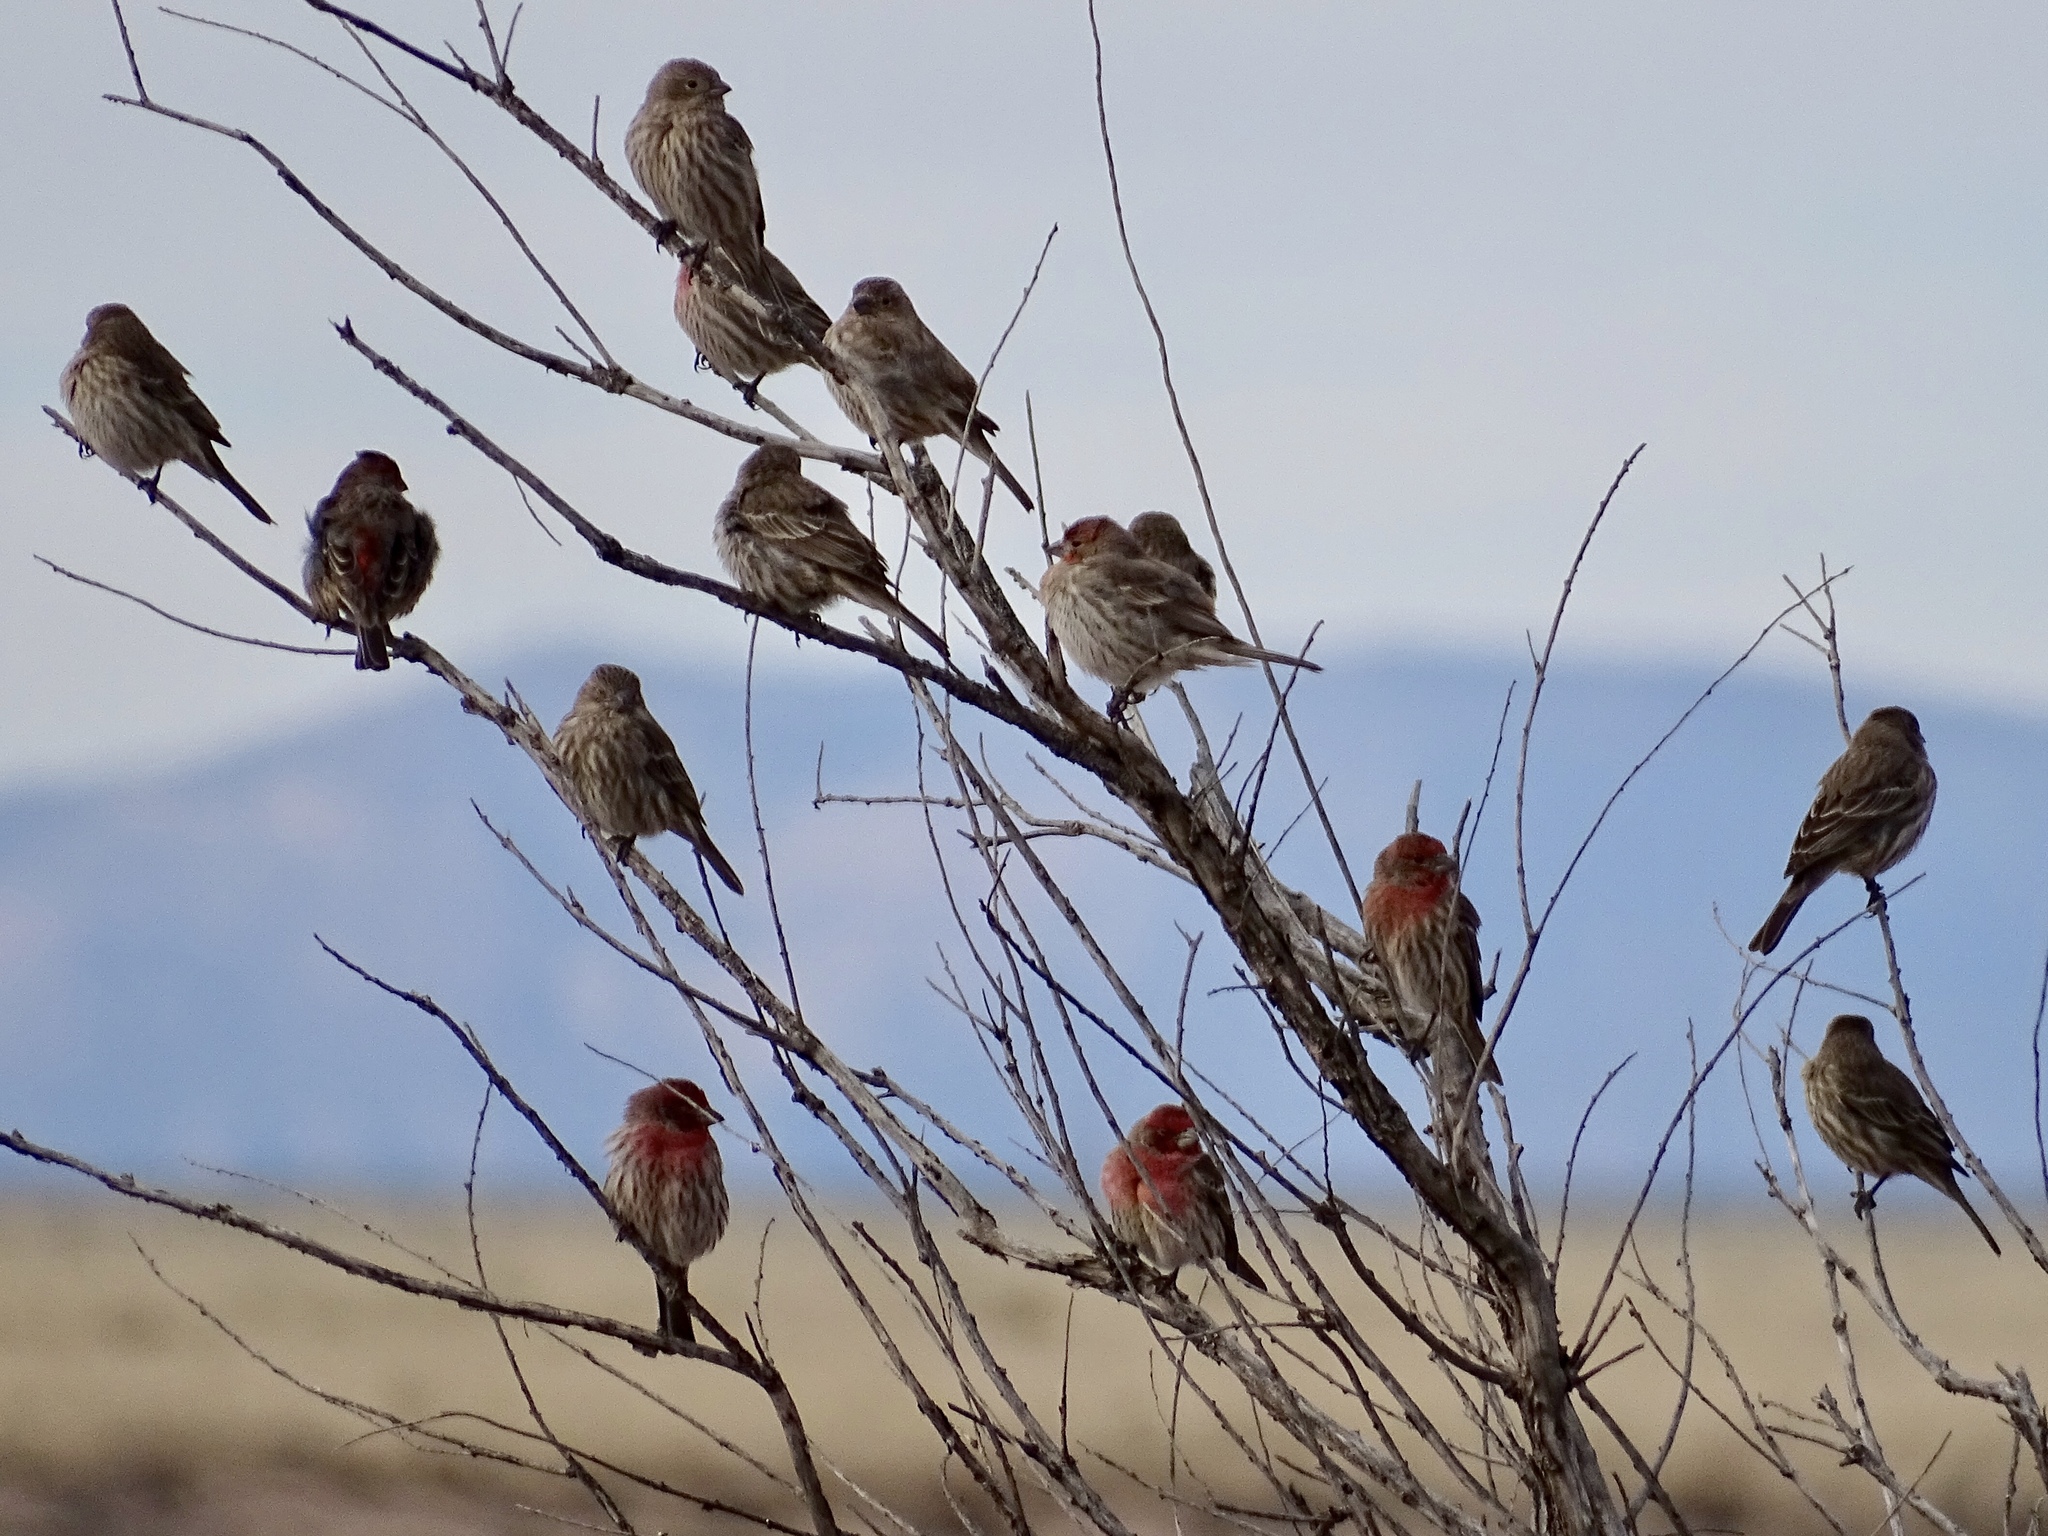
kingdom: Animalia
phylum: Chordata
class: Aves
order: Passeriformes
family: Fringillidae
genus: Haemorhous
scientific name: Haemorhous mexicanus
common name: House finch
